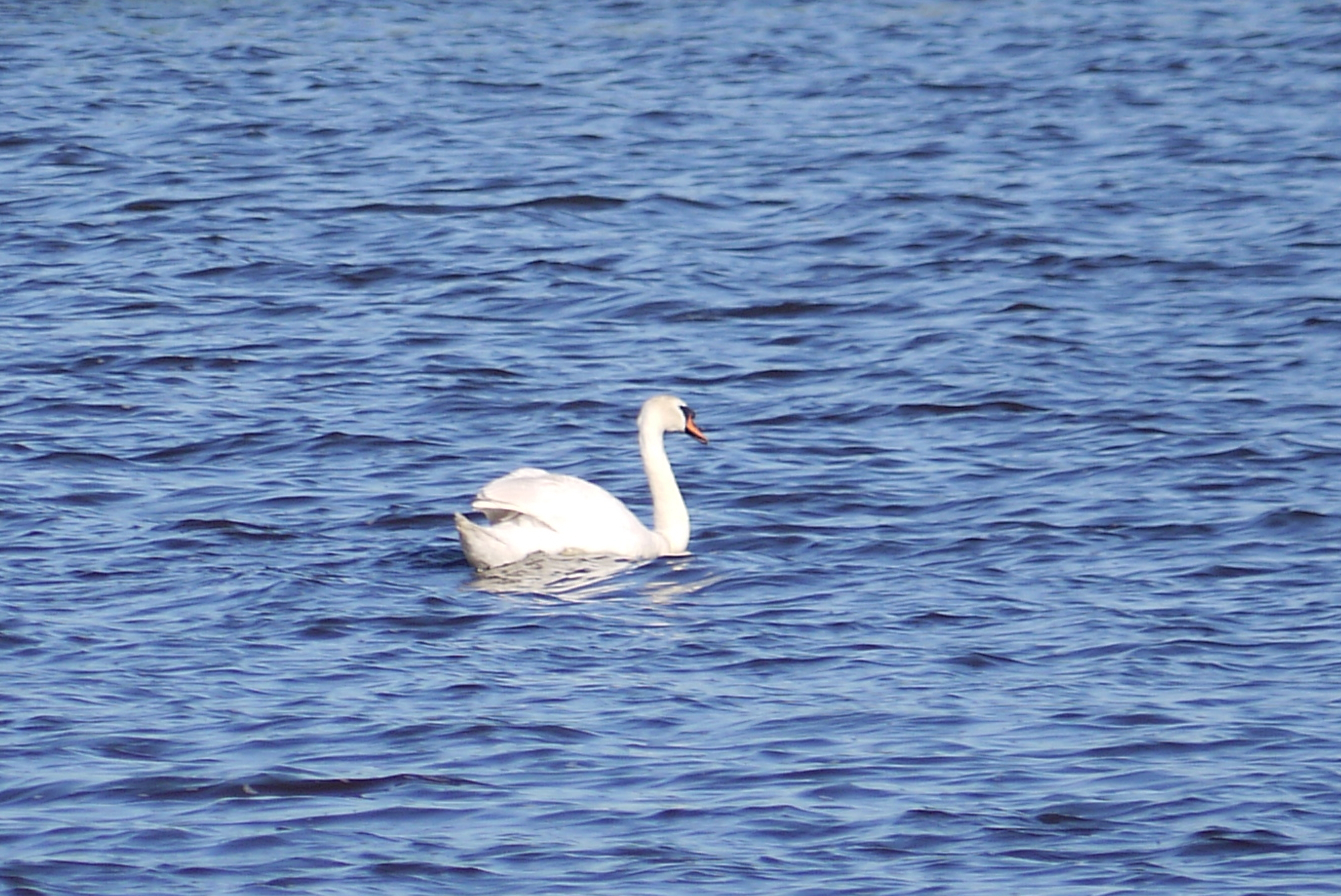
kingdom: Animalia
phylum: Chordata
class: Aves
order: Anseriformes
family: Anatidae
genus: Cygnus
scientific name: Cygnus olor
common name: Mute swan
